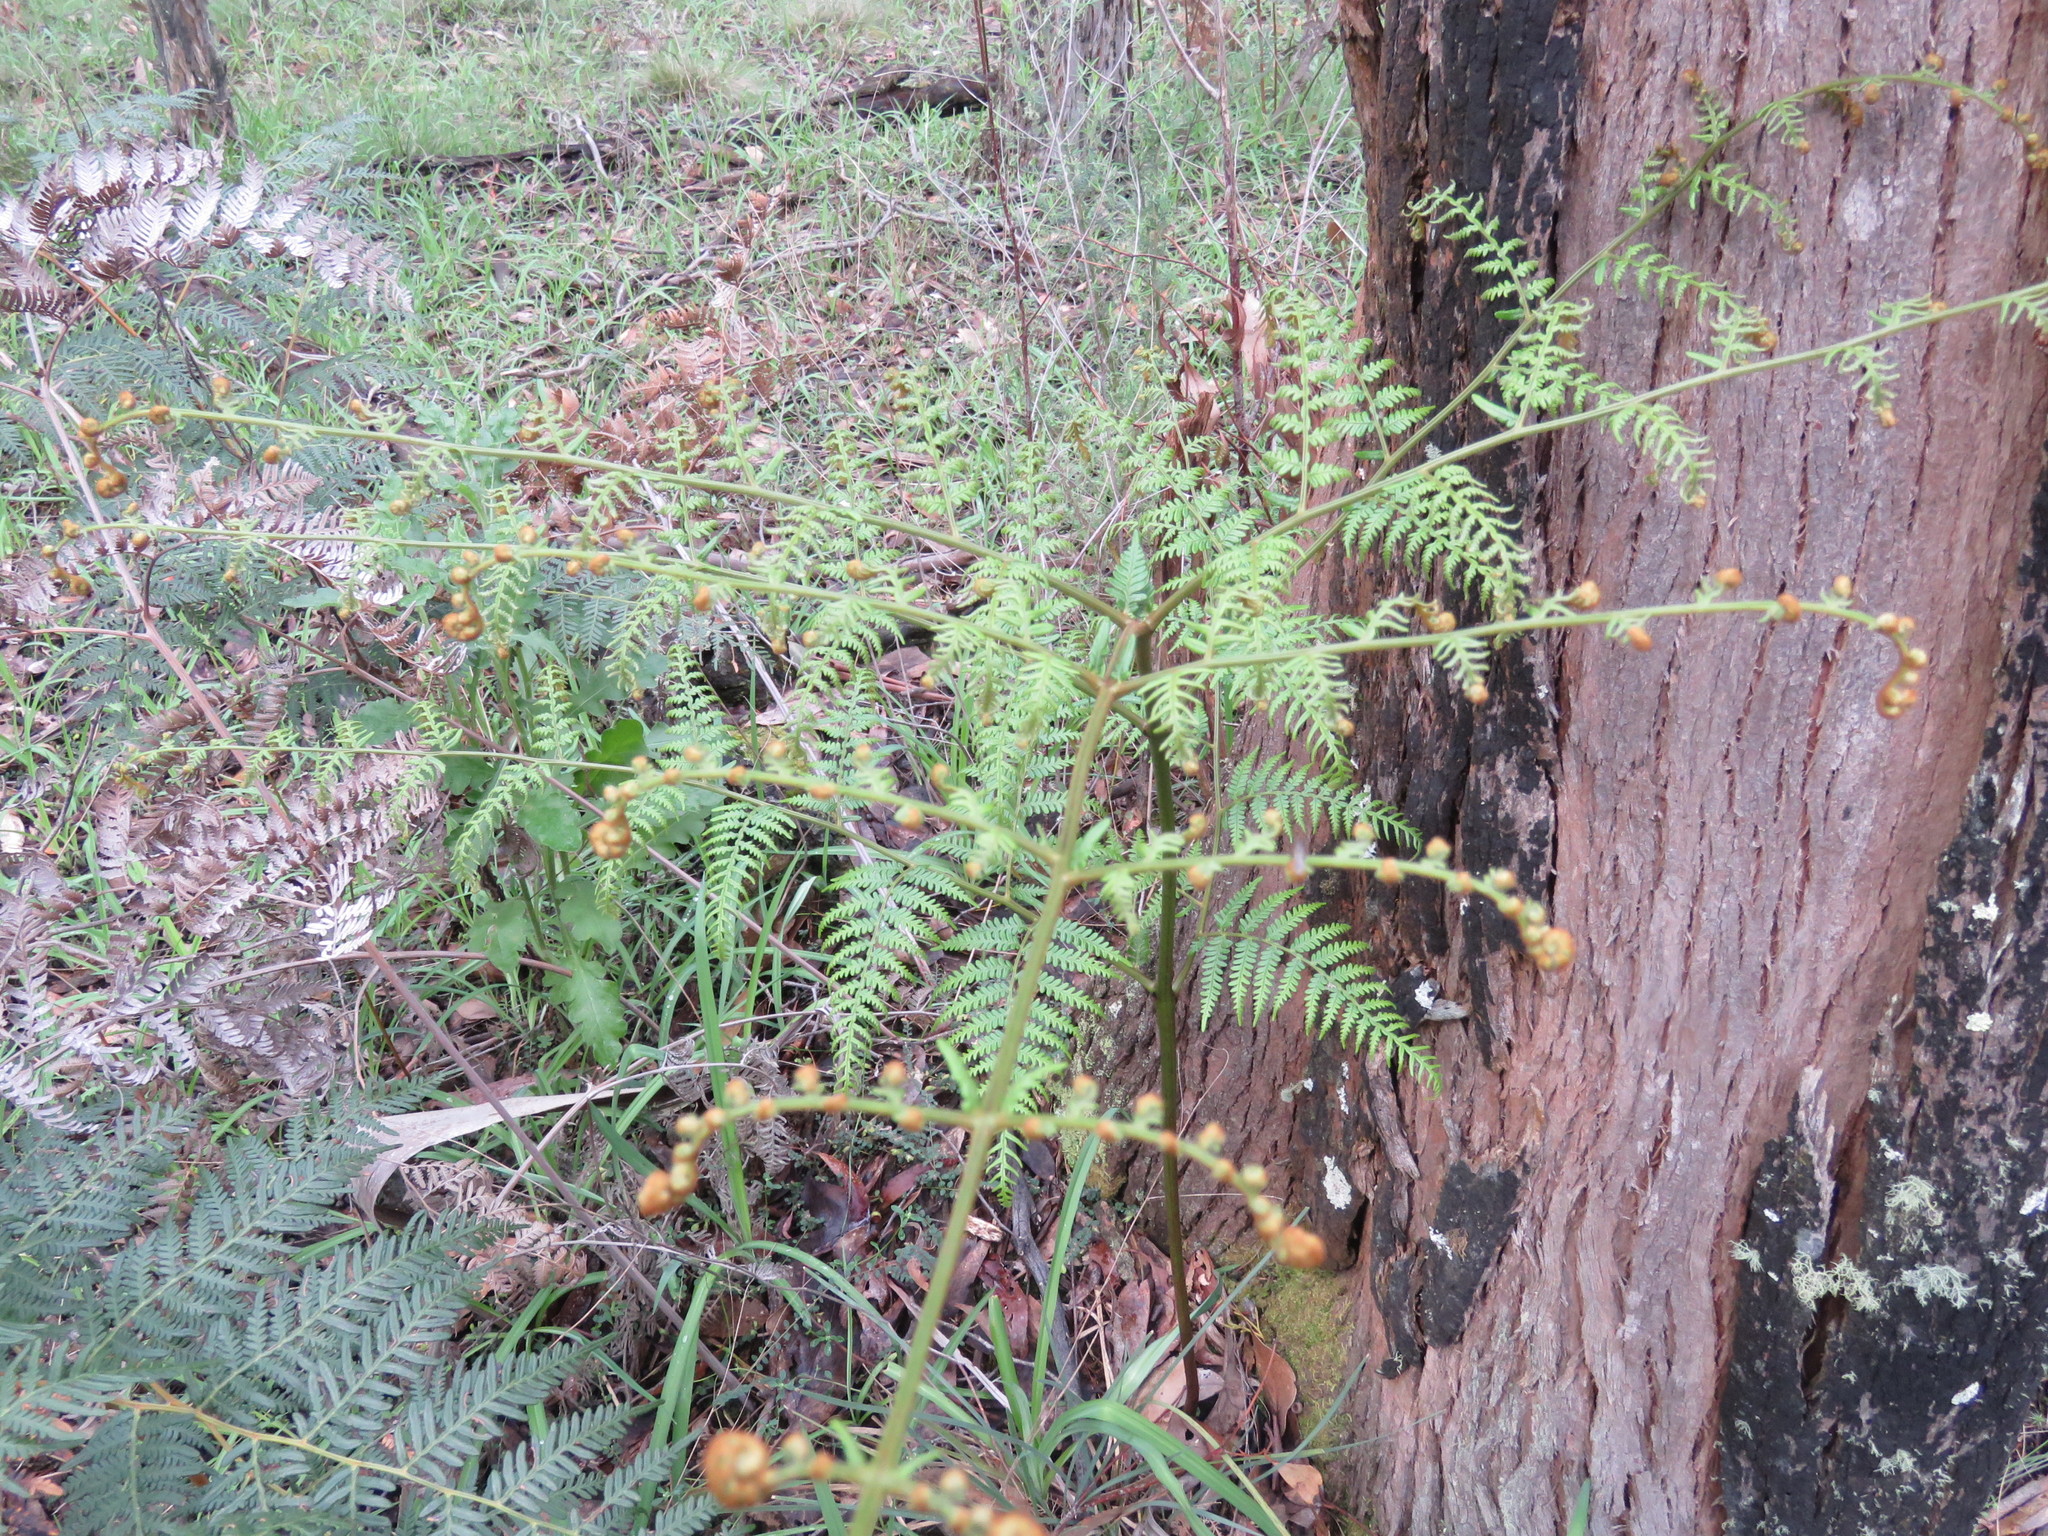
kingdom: Plantae
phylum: Tracheophyta
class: Polypodiopsida
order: Polypodiales
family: Dennstaedtiaceae
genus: Pteridium
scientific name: Pteridium esculentum
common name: Bracken fern
